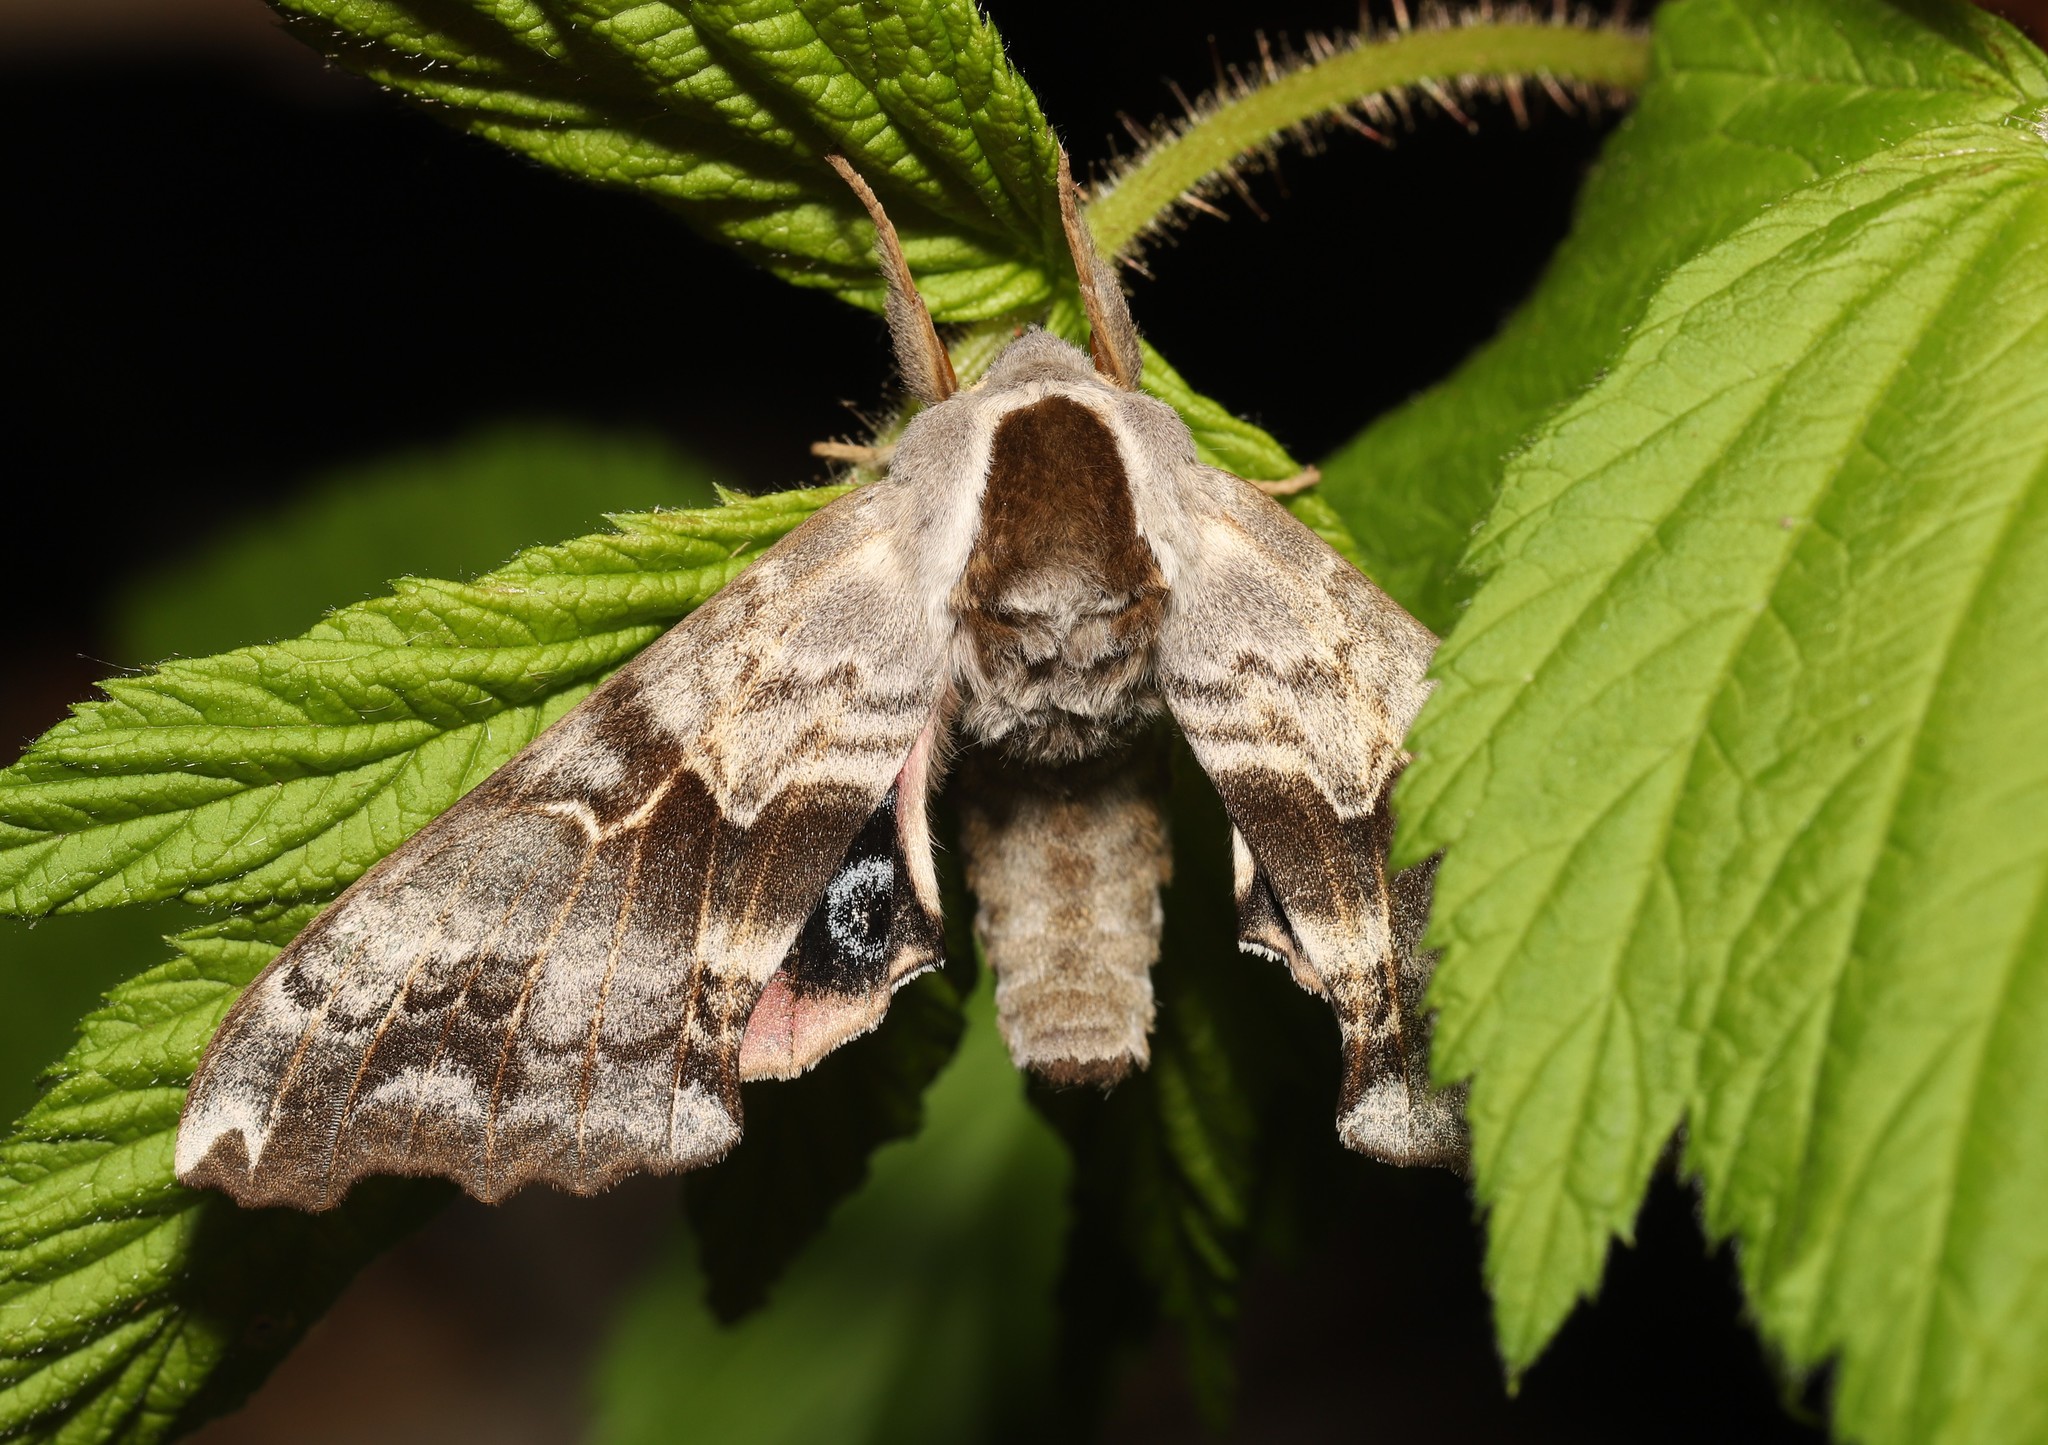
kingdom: Animalia
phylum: Arthropoda
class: Insecta
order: Lepidoptera
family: Sphingidae
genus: Smerinthus
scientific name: Smerinthus cerisyi
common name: Cerisy's sphinx moth
